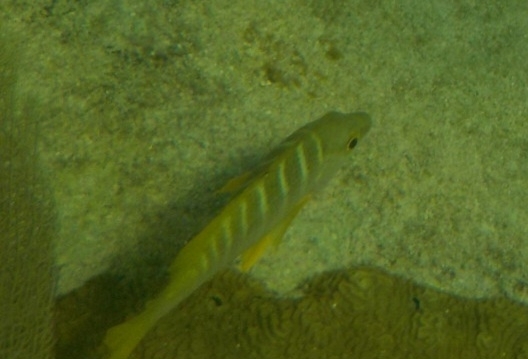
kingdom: Animalia
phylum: Chordata
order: Perciformes
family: Lutjanidae
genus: Lutjanus
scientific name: Lutjanus apodus
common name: Schoolmaster
